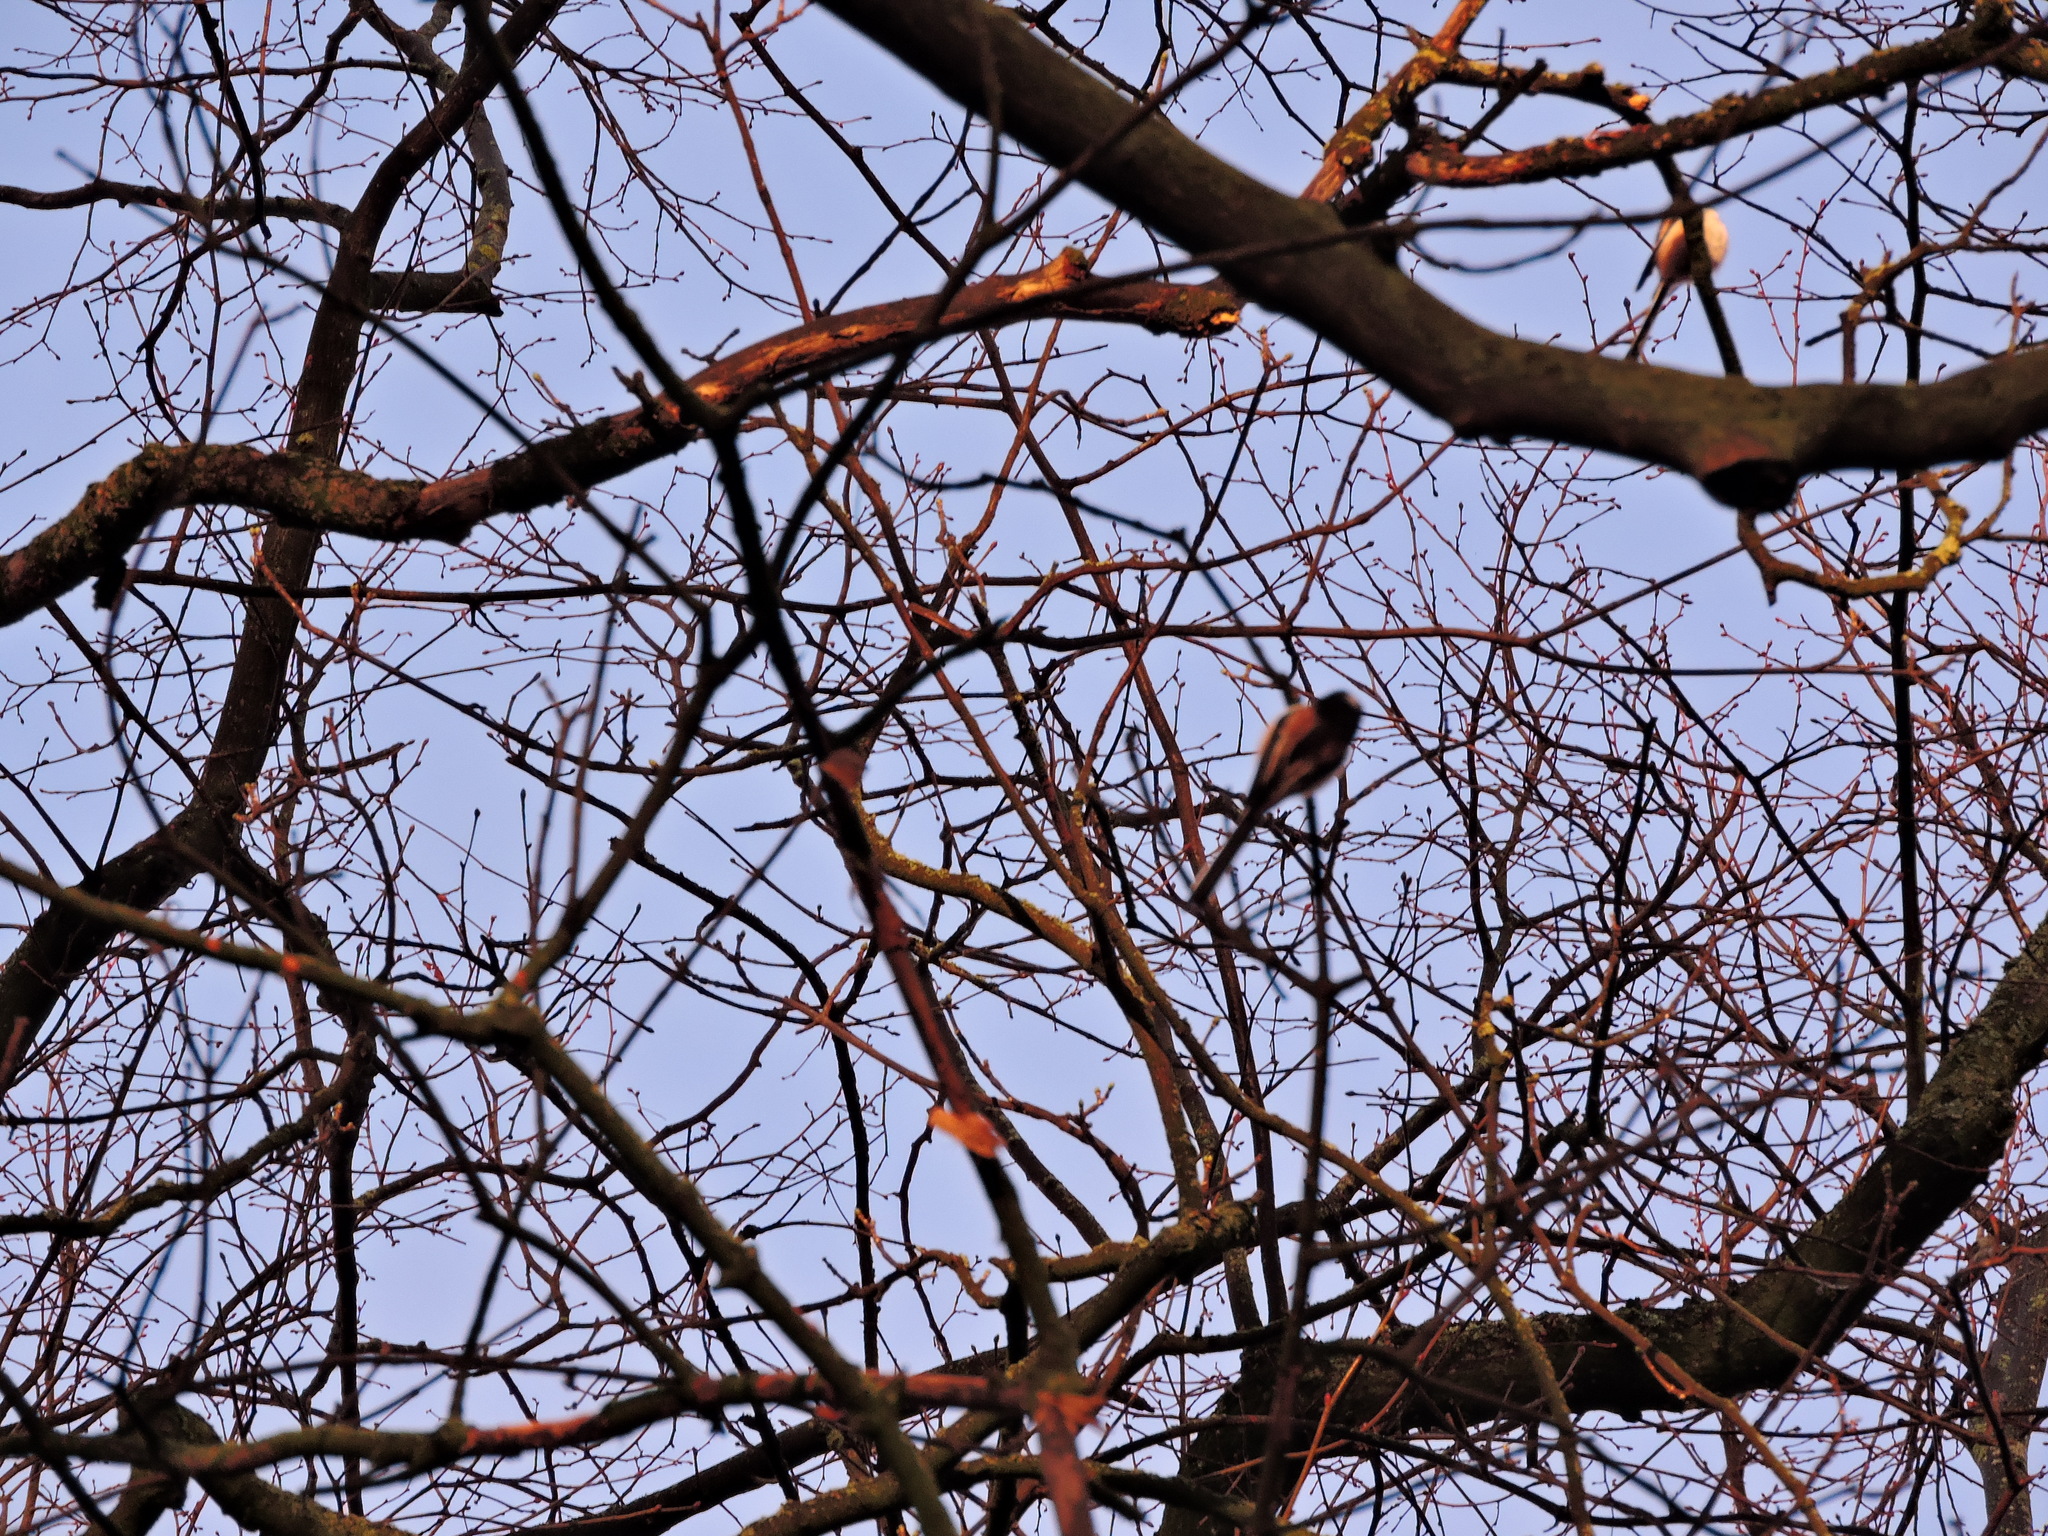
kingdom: Animalia
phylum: Chordata
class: Aves
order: Passeriformes
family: Aegithalidae
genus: Aegithalos
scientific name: Aegithalos caudatus
